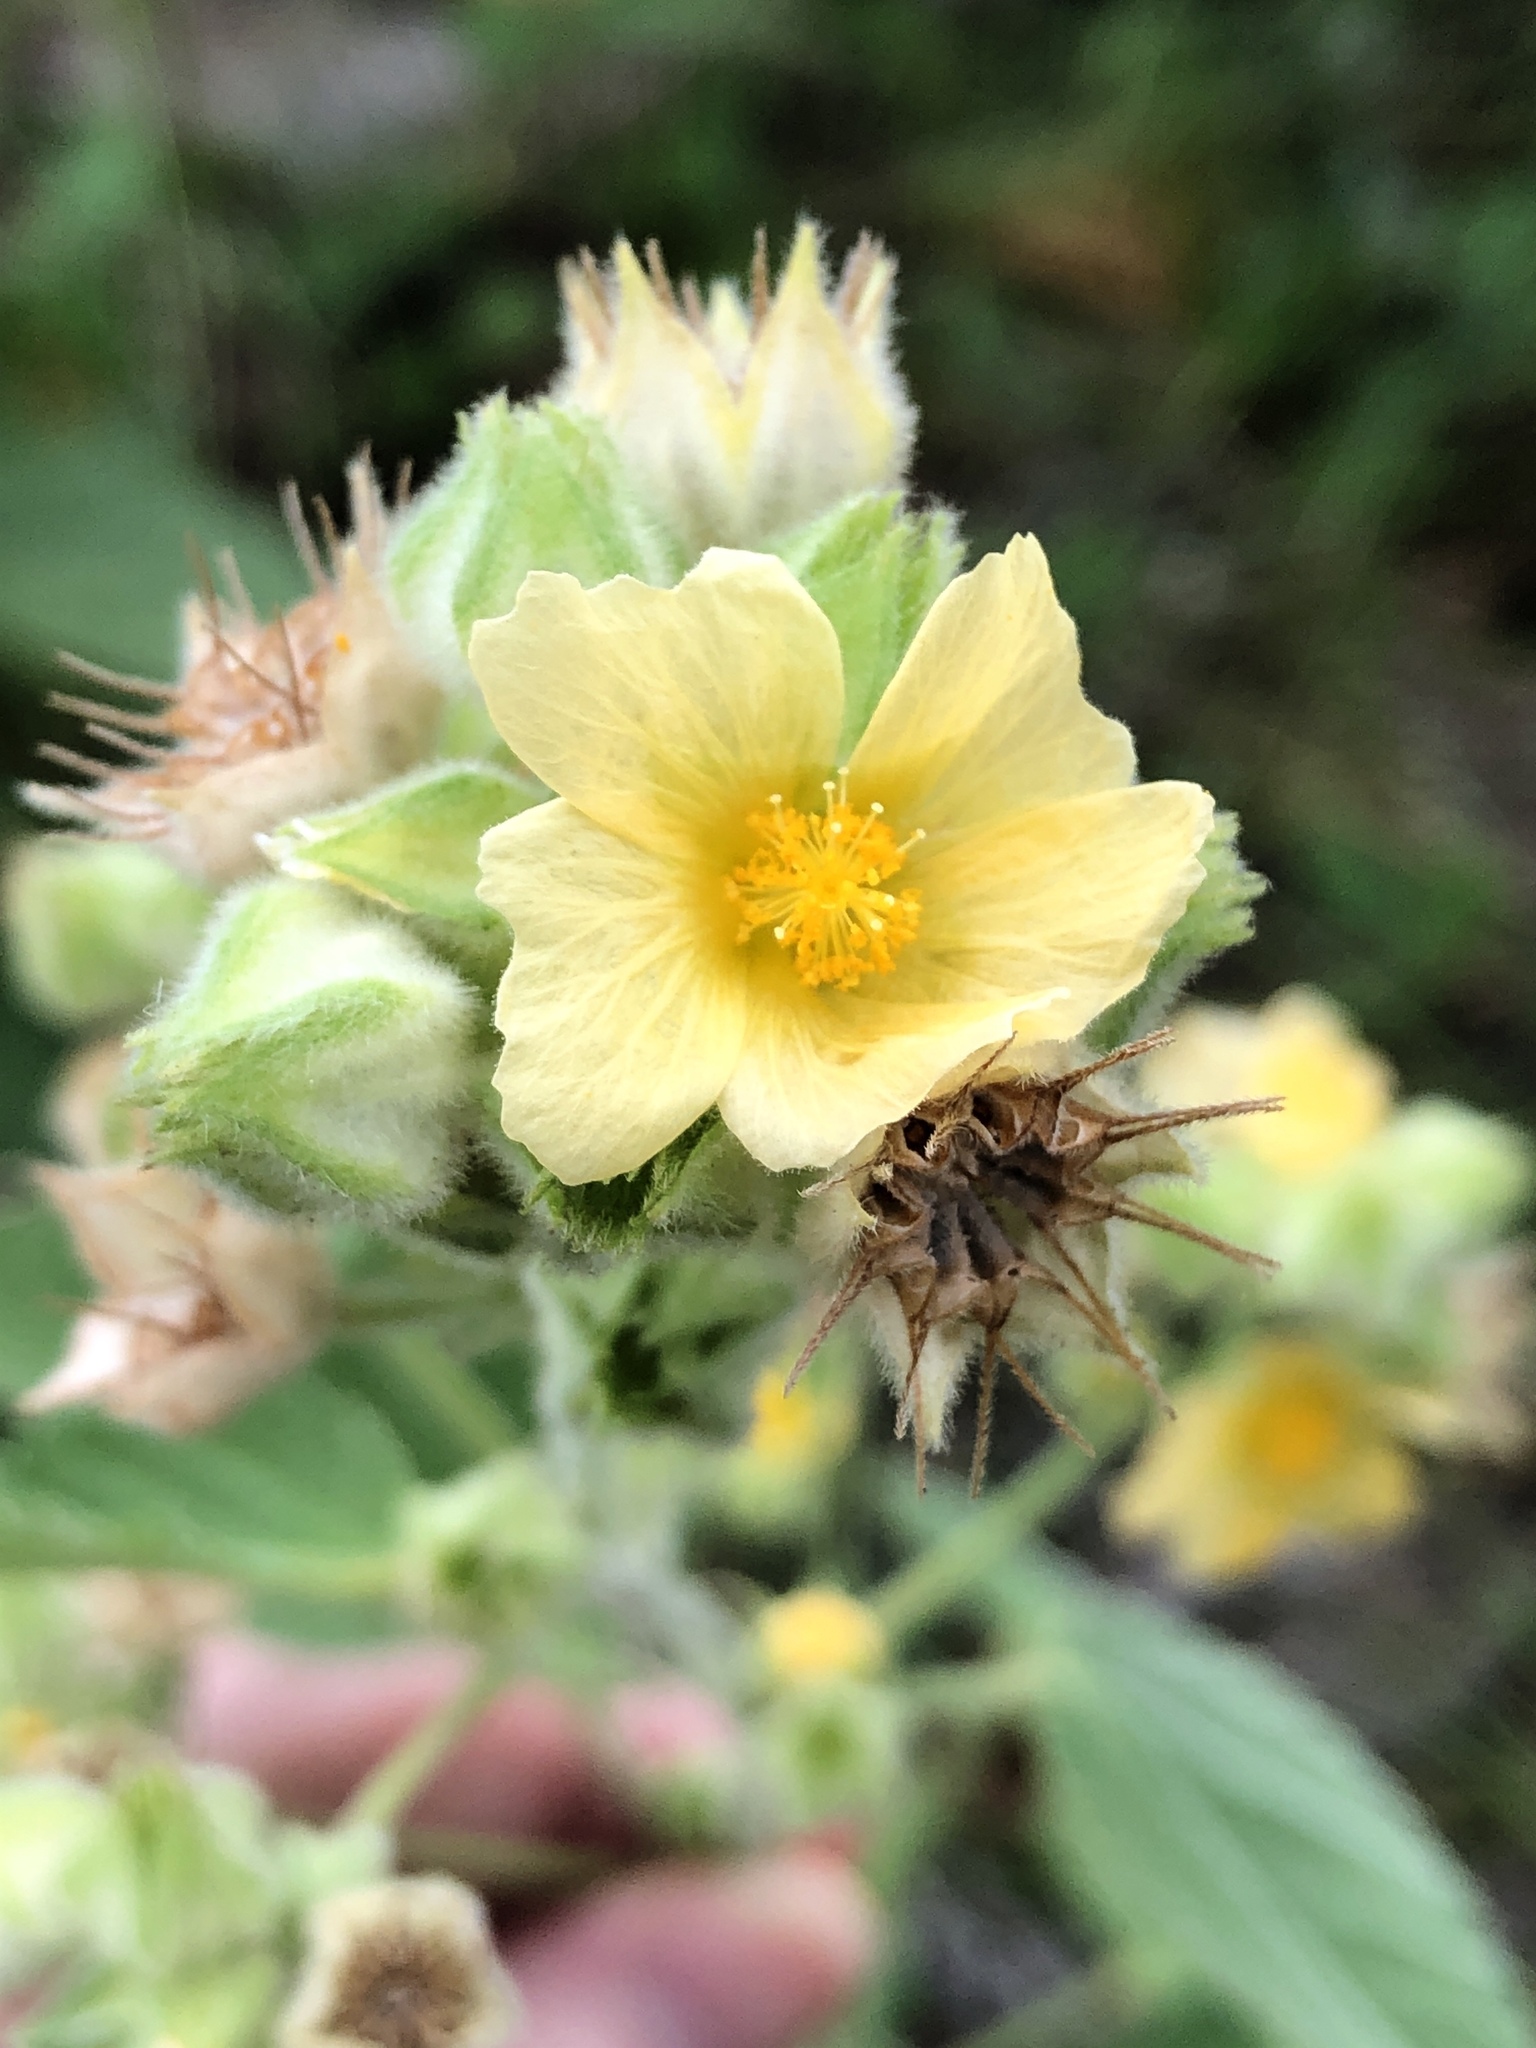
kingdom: Plantae
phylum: Tracheophyta
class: Magnoliopsida
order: Malvales
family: Malvaceae
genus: Sida
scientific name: Sida cordifolia
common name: Ilima
